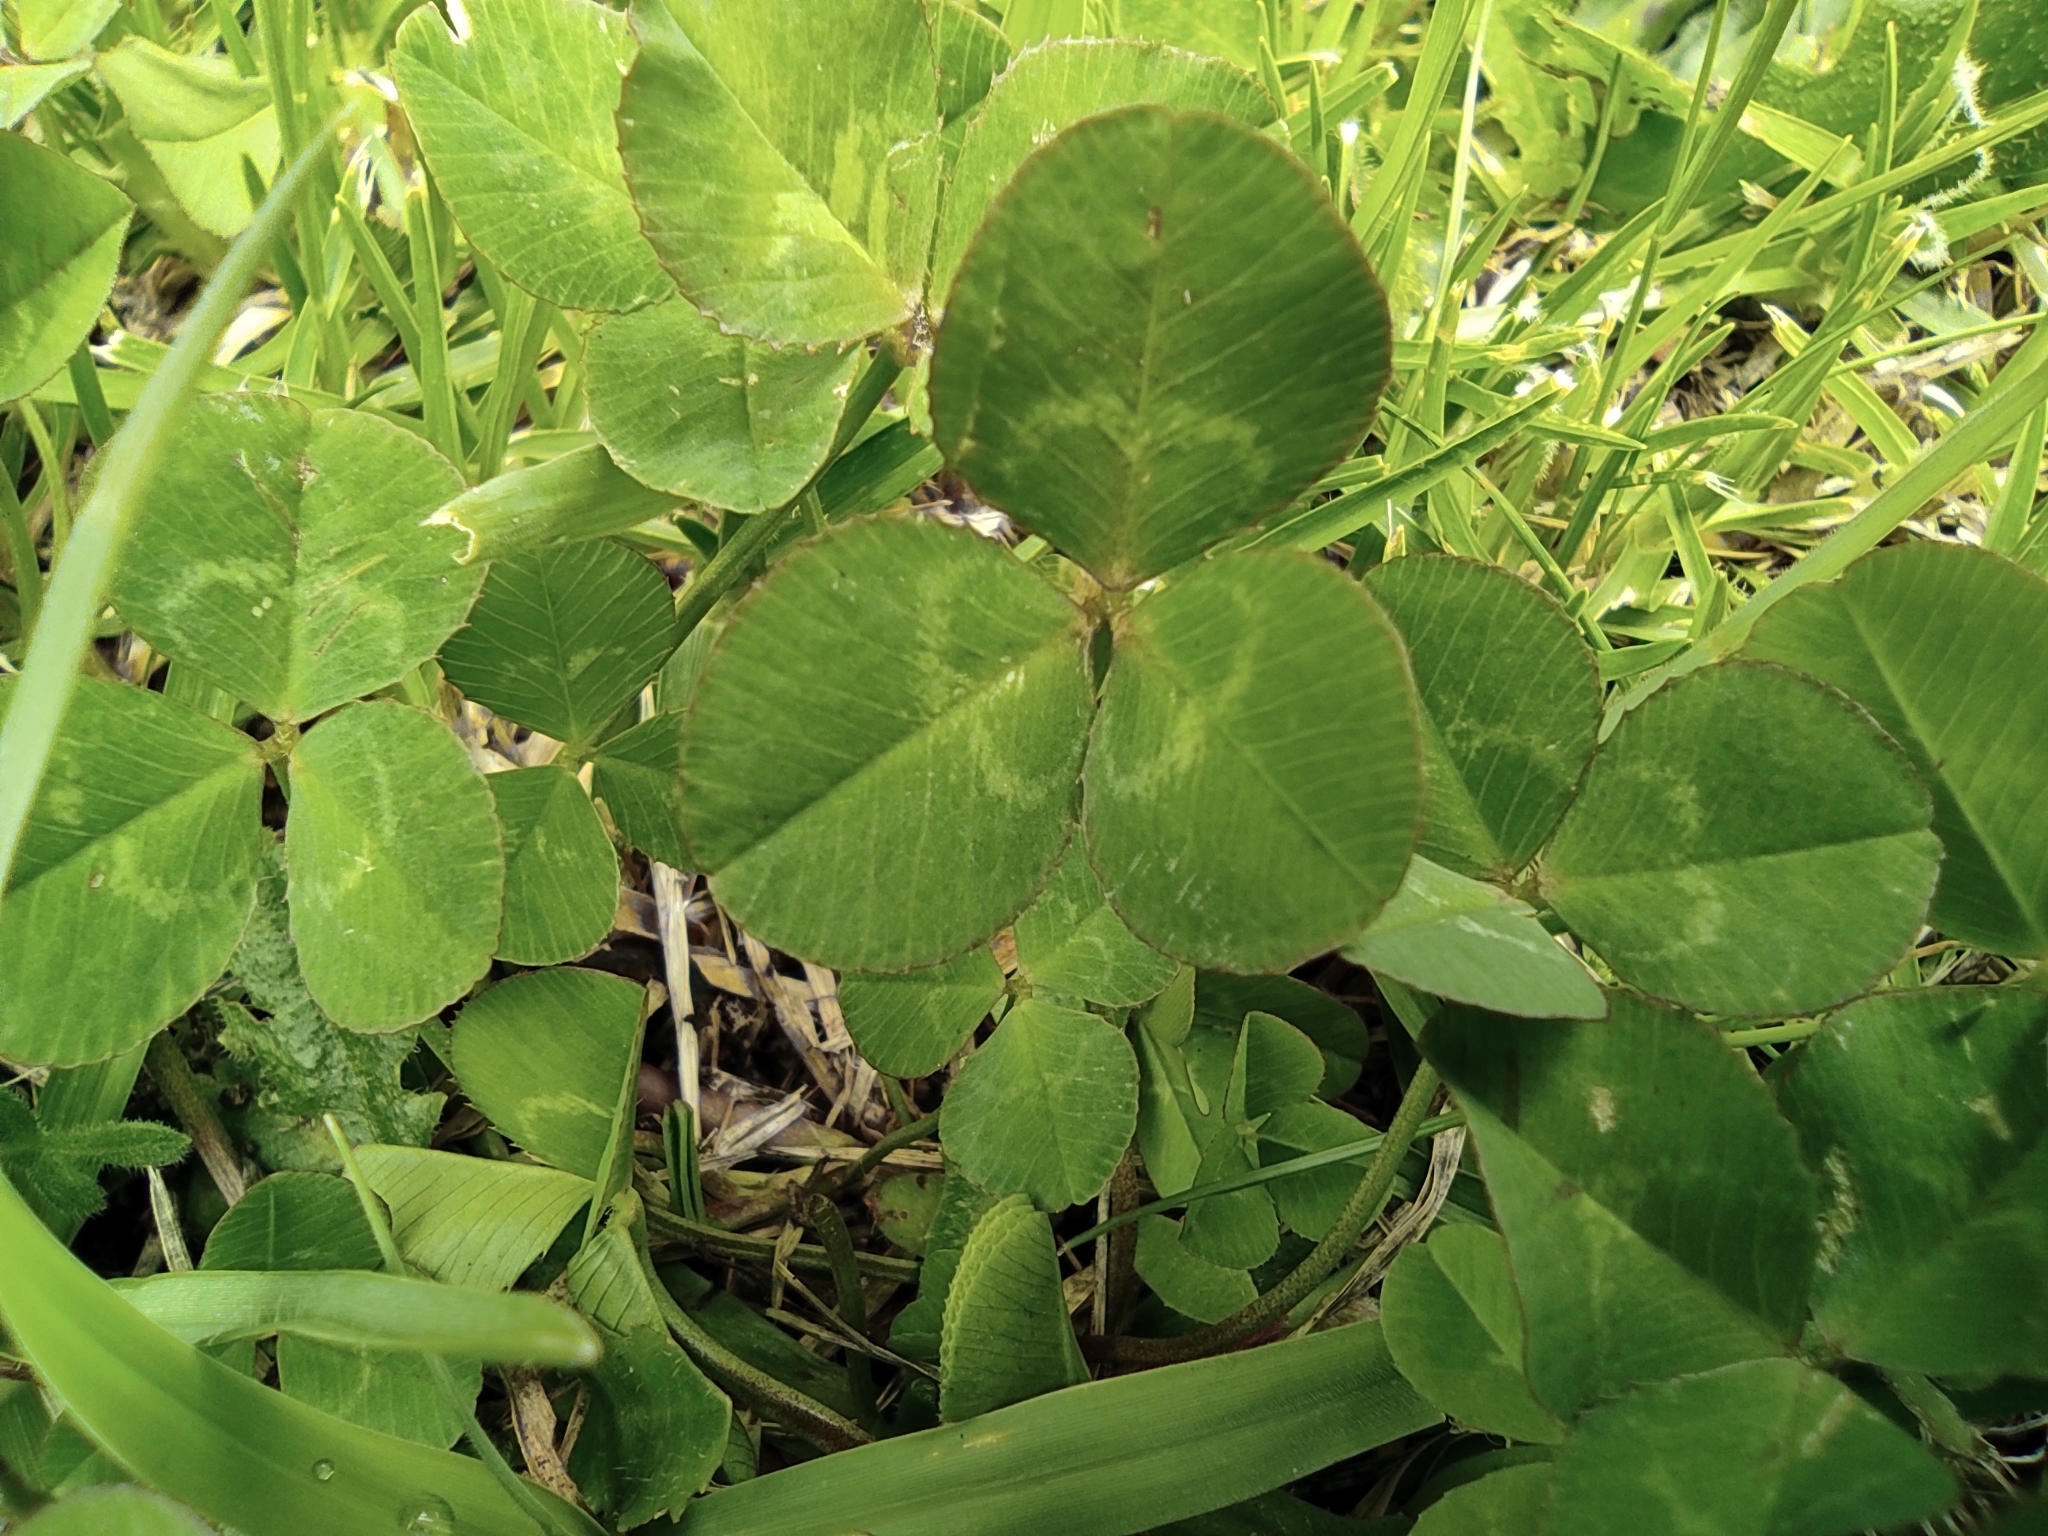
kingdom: Plantae
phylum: Tracheophyta
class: Magnoliopsida
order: Fabales
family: Fabaceae
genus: Trifolium
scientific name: Trifolium repens
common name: White clover
